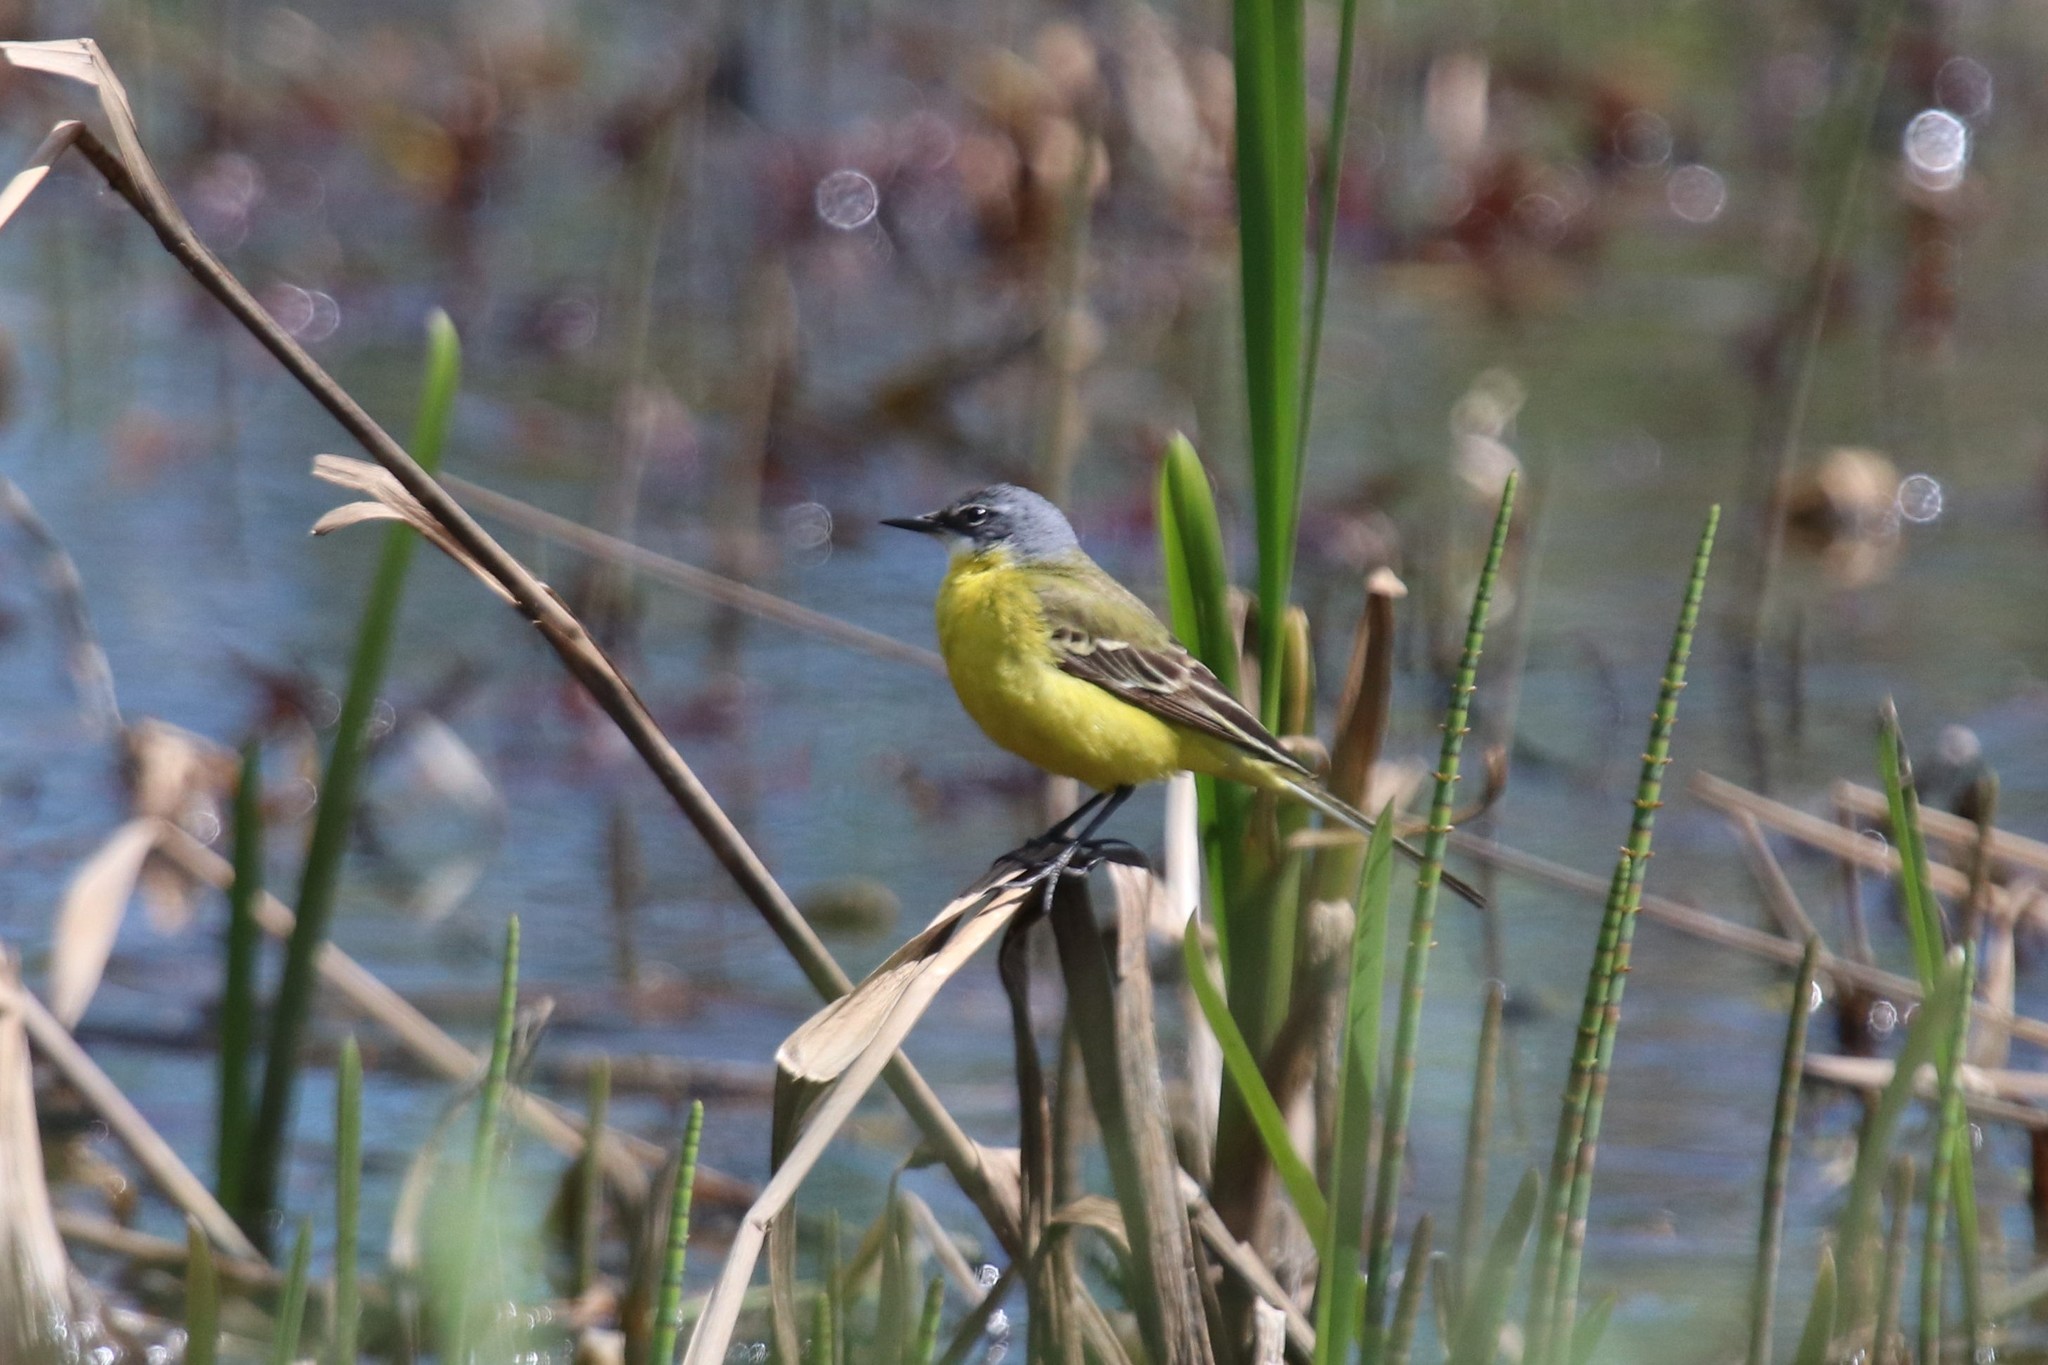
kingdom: Animalia
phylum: Chordata
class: Aves
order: Passeriformes
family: Motacillidae
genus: Motacilla
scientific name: Motacilla flava
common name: Western yellow wagtail
